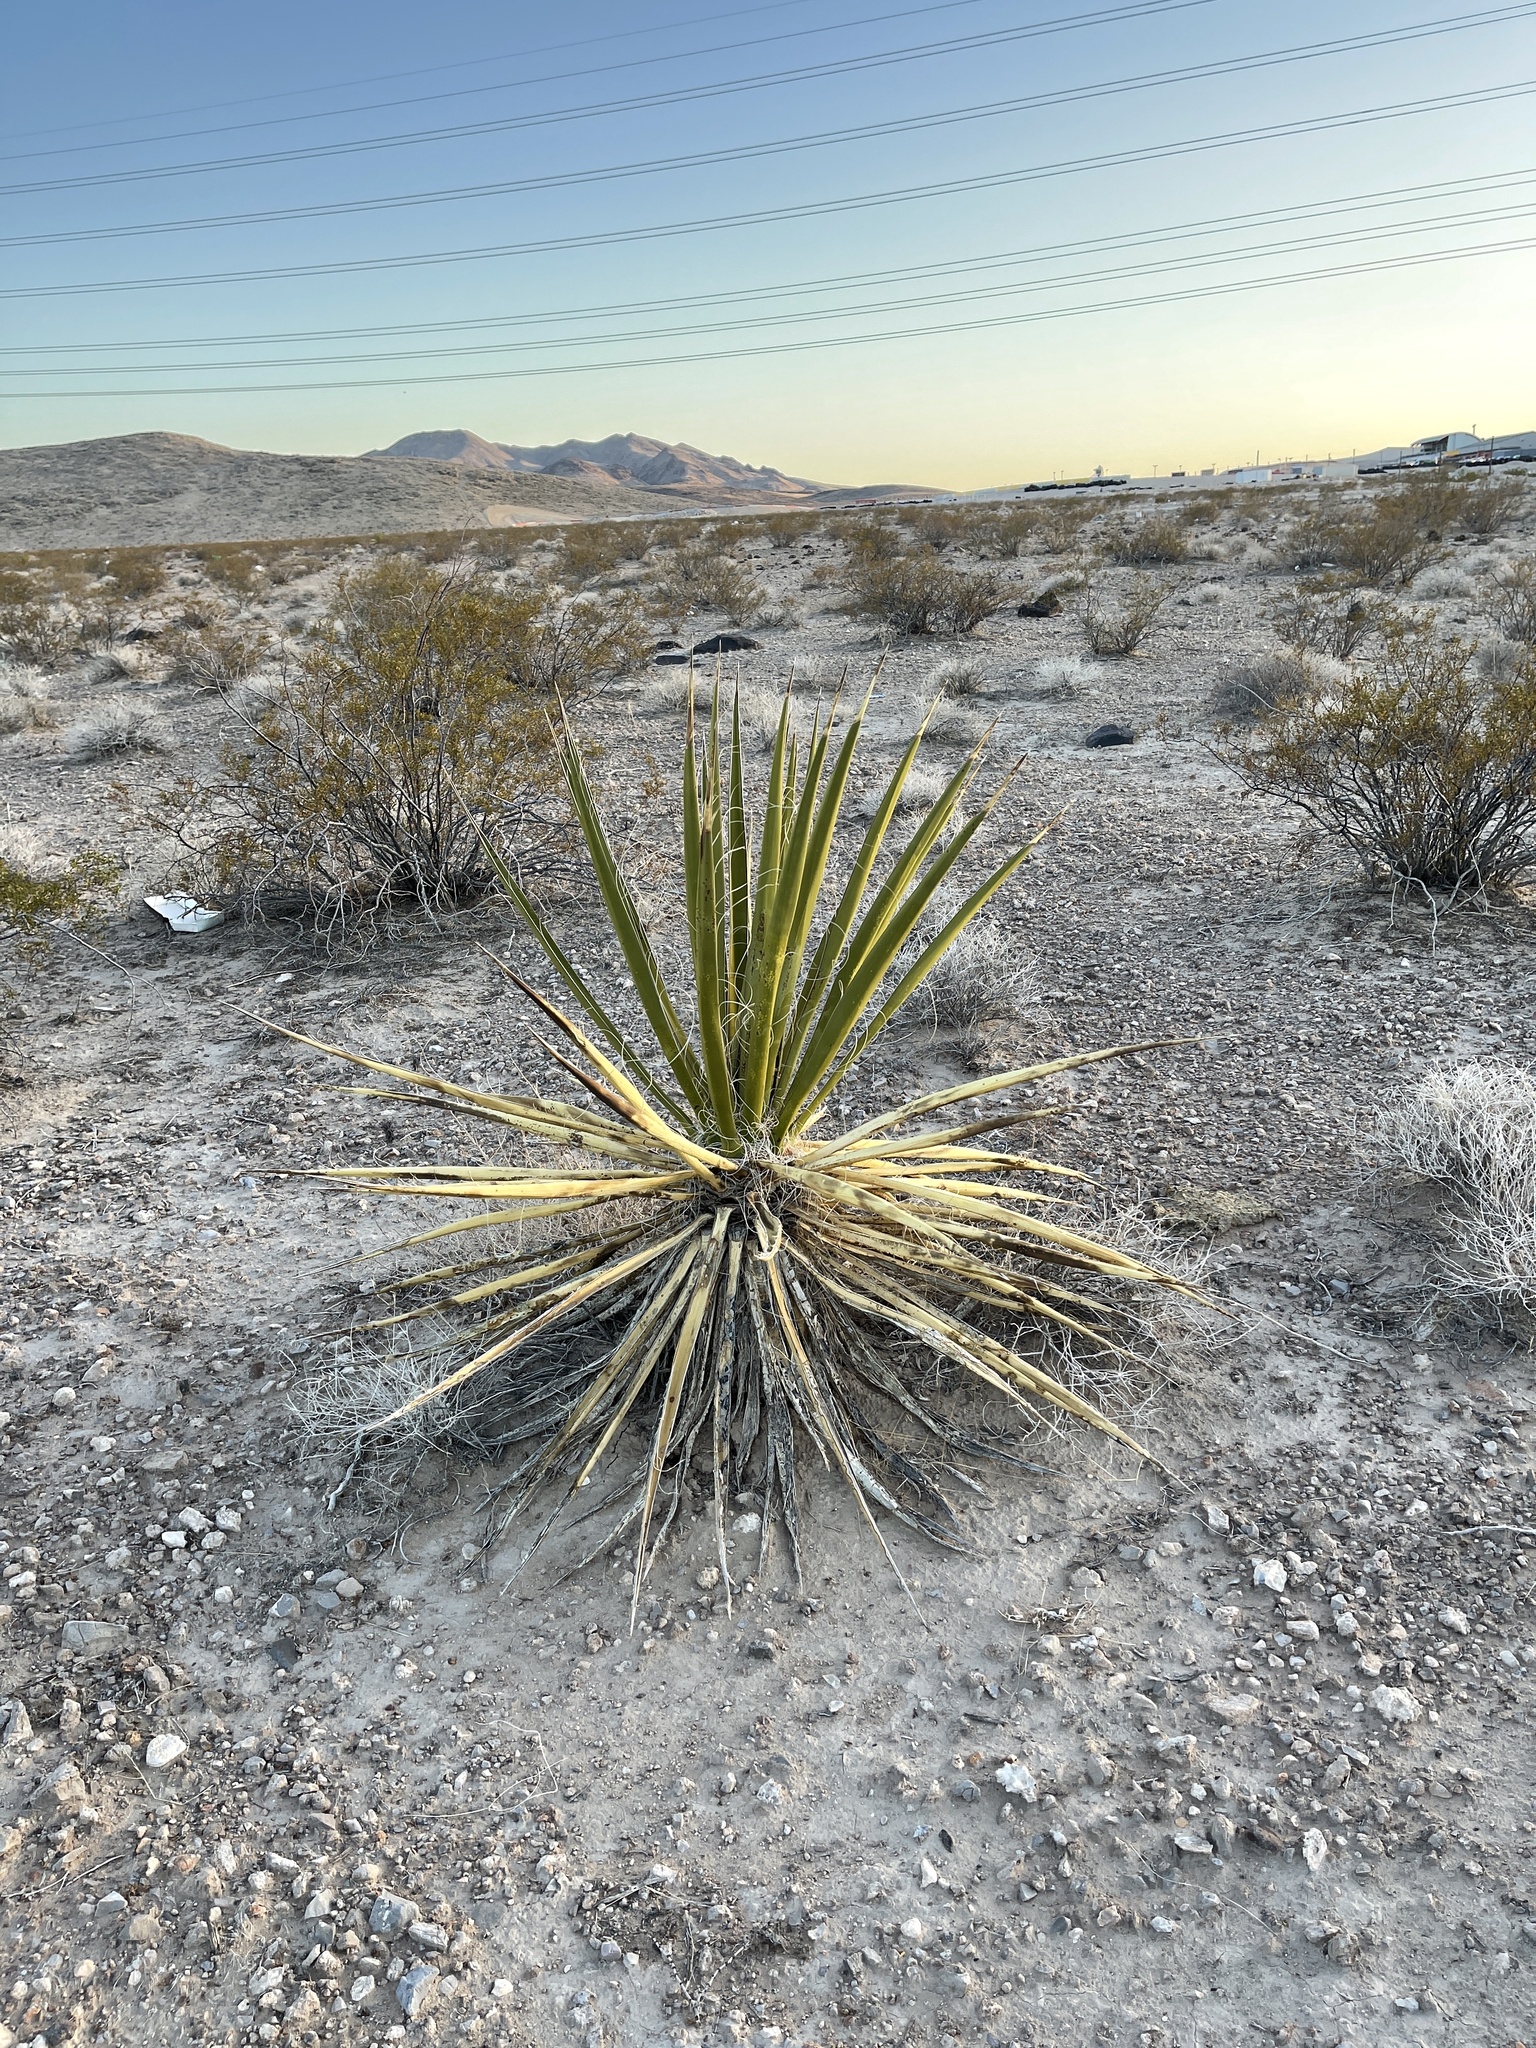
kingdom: Plantae
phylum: Tracheophyta
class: Liliopsida
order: Asparagales
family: Asparagaceae
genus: Yucca
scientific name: Yucca schidigera
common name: Mojave yucca
